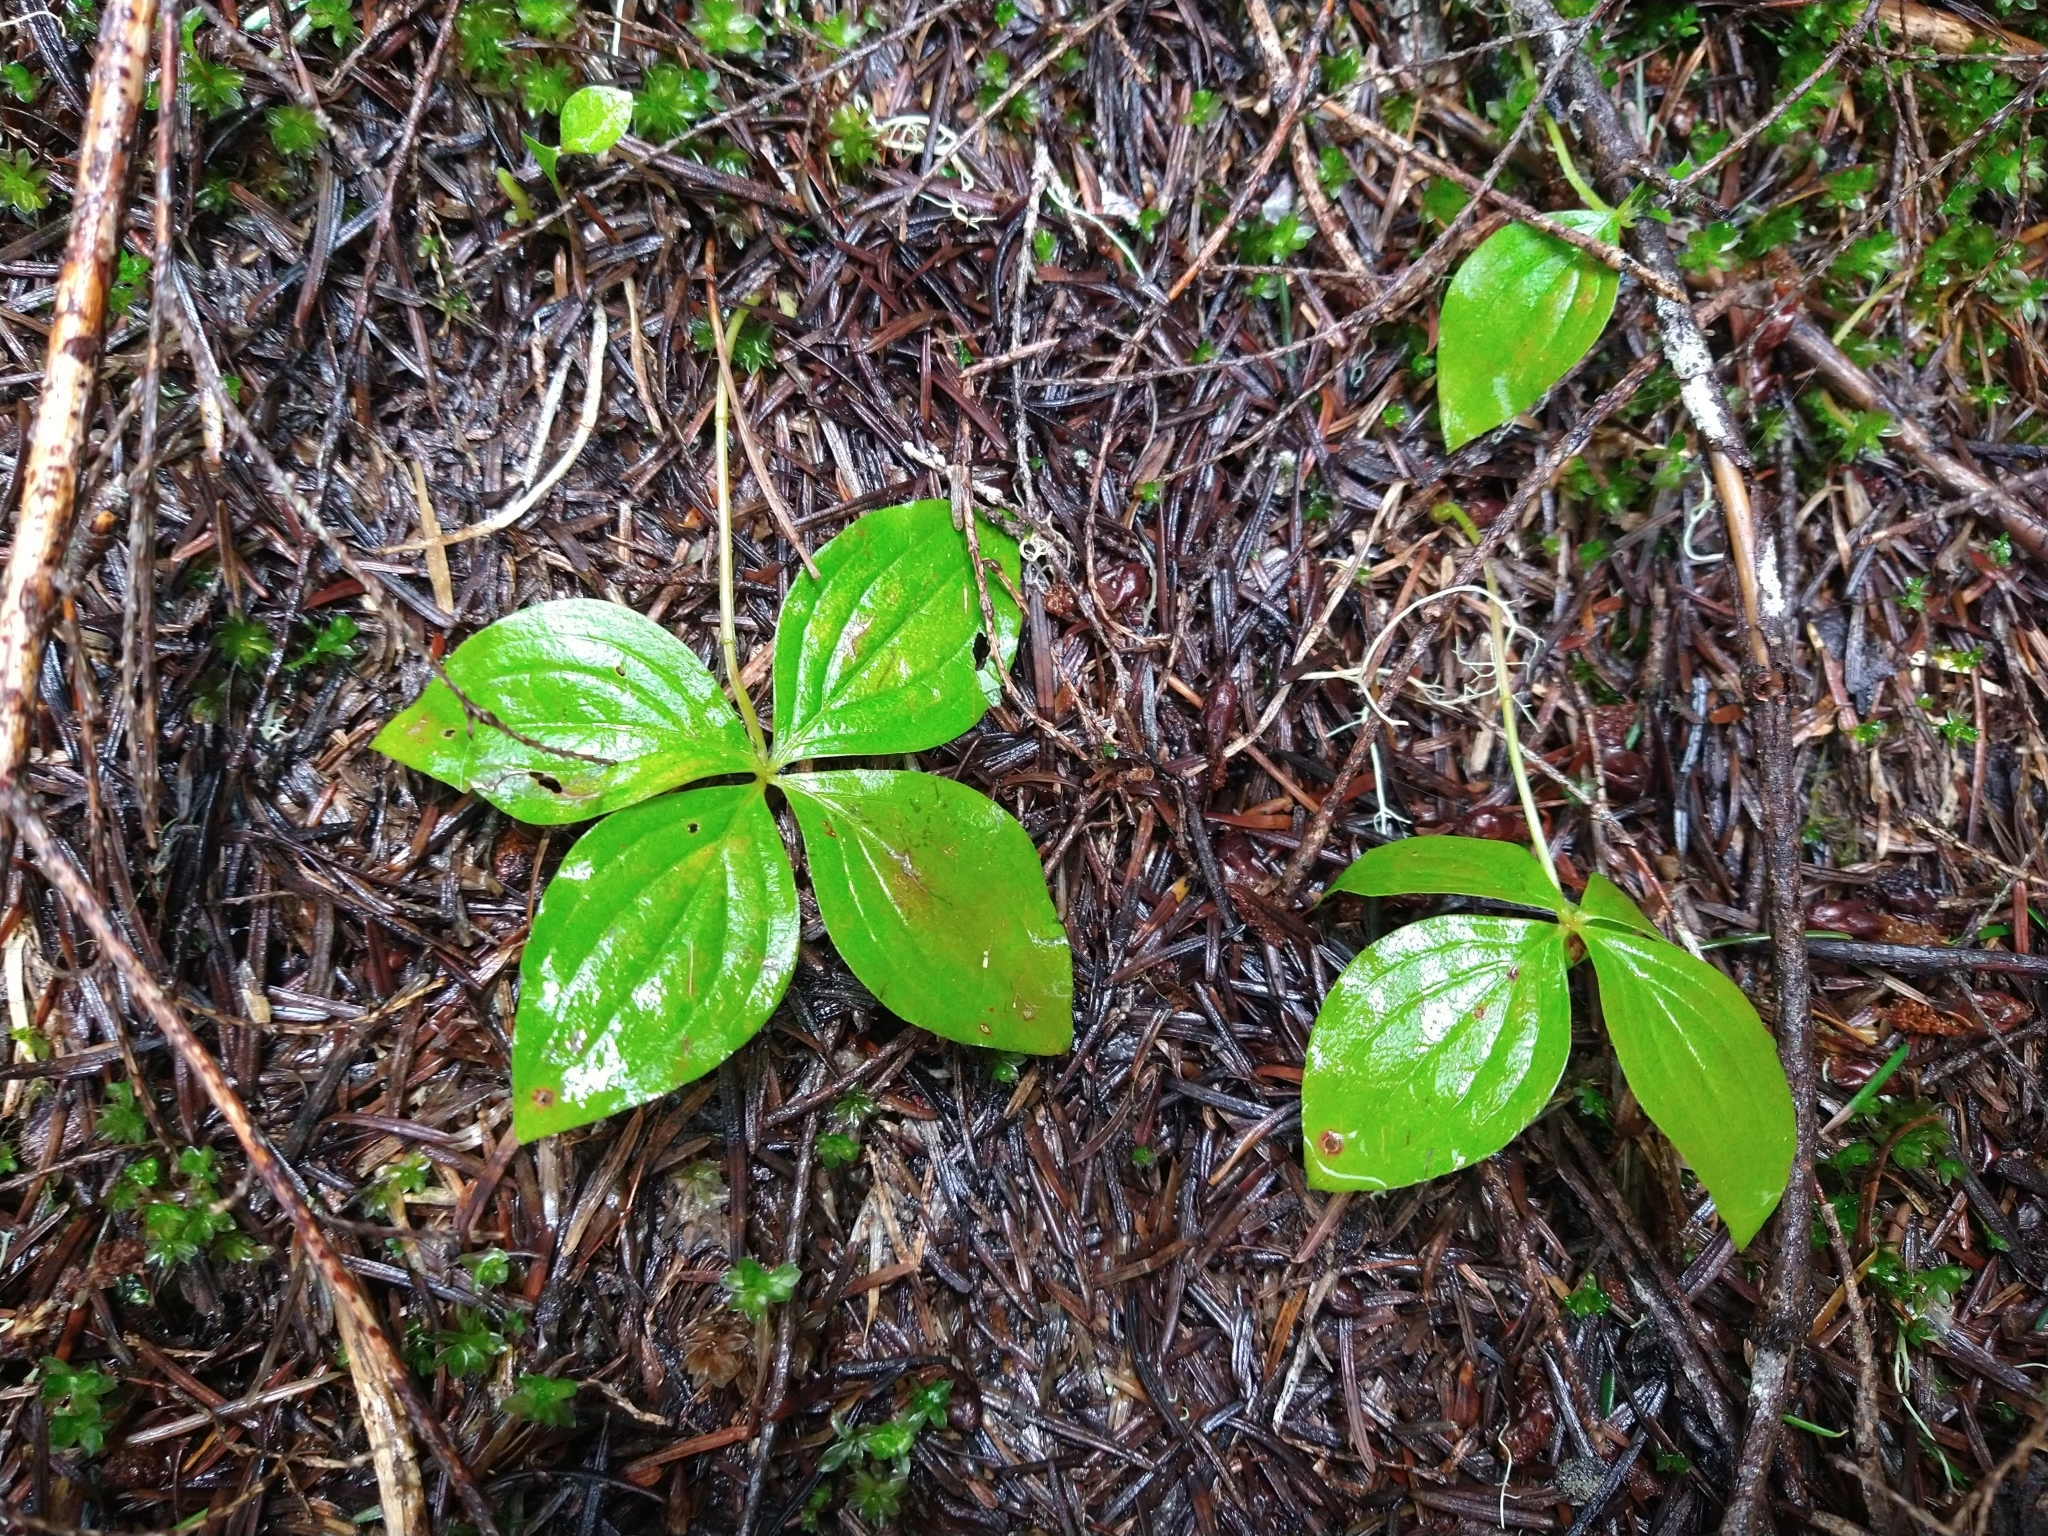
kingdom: Plantae
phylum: Tracheophyta
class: Magnoliopsida
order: Cornales
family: Cornaceae
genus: Cornus
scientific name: Cornus unalaschkensis
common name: Alaska bunchberry
